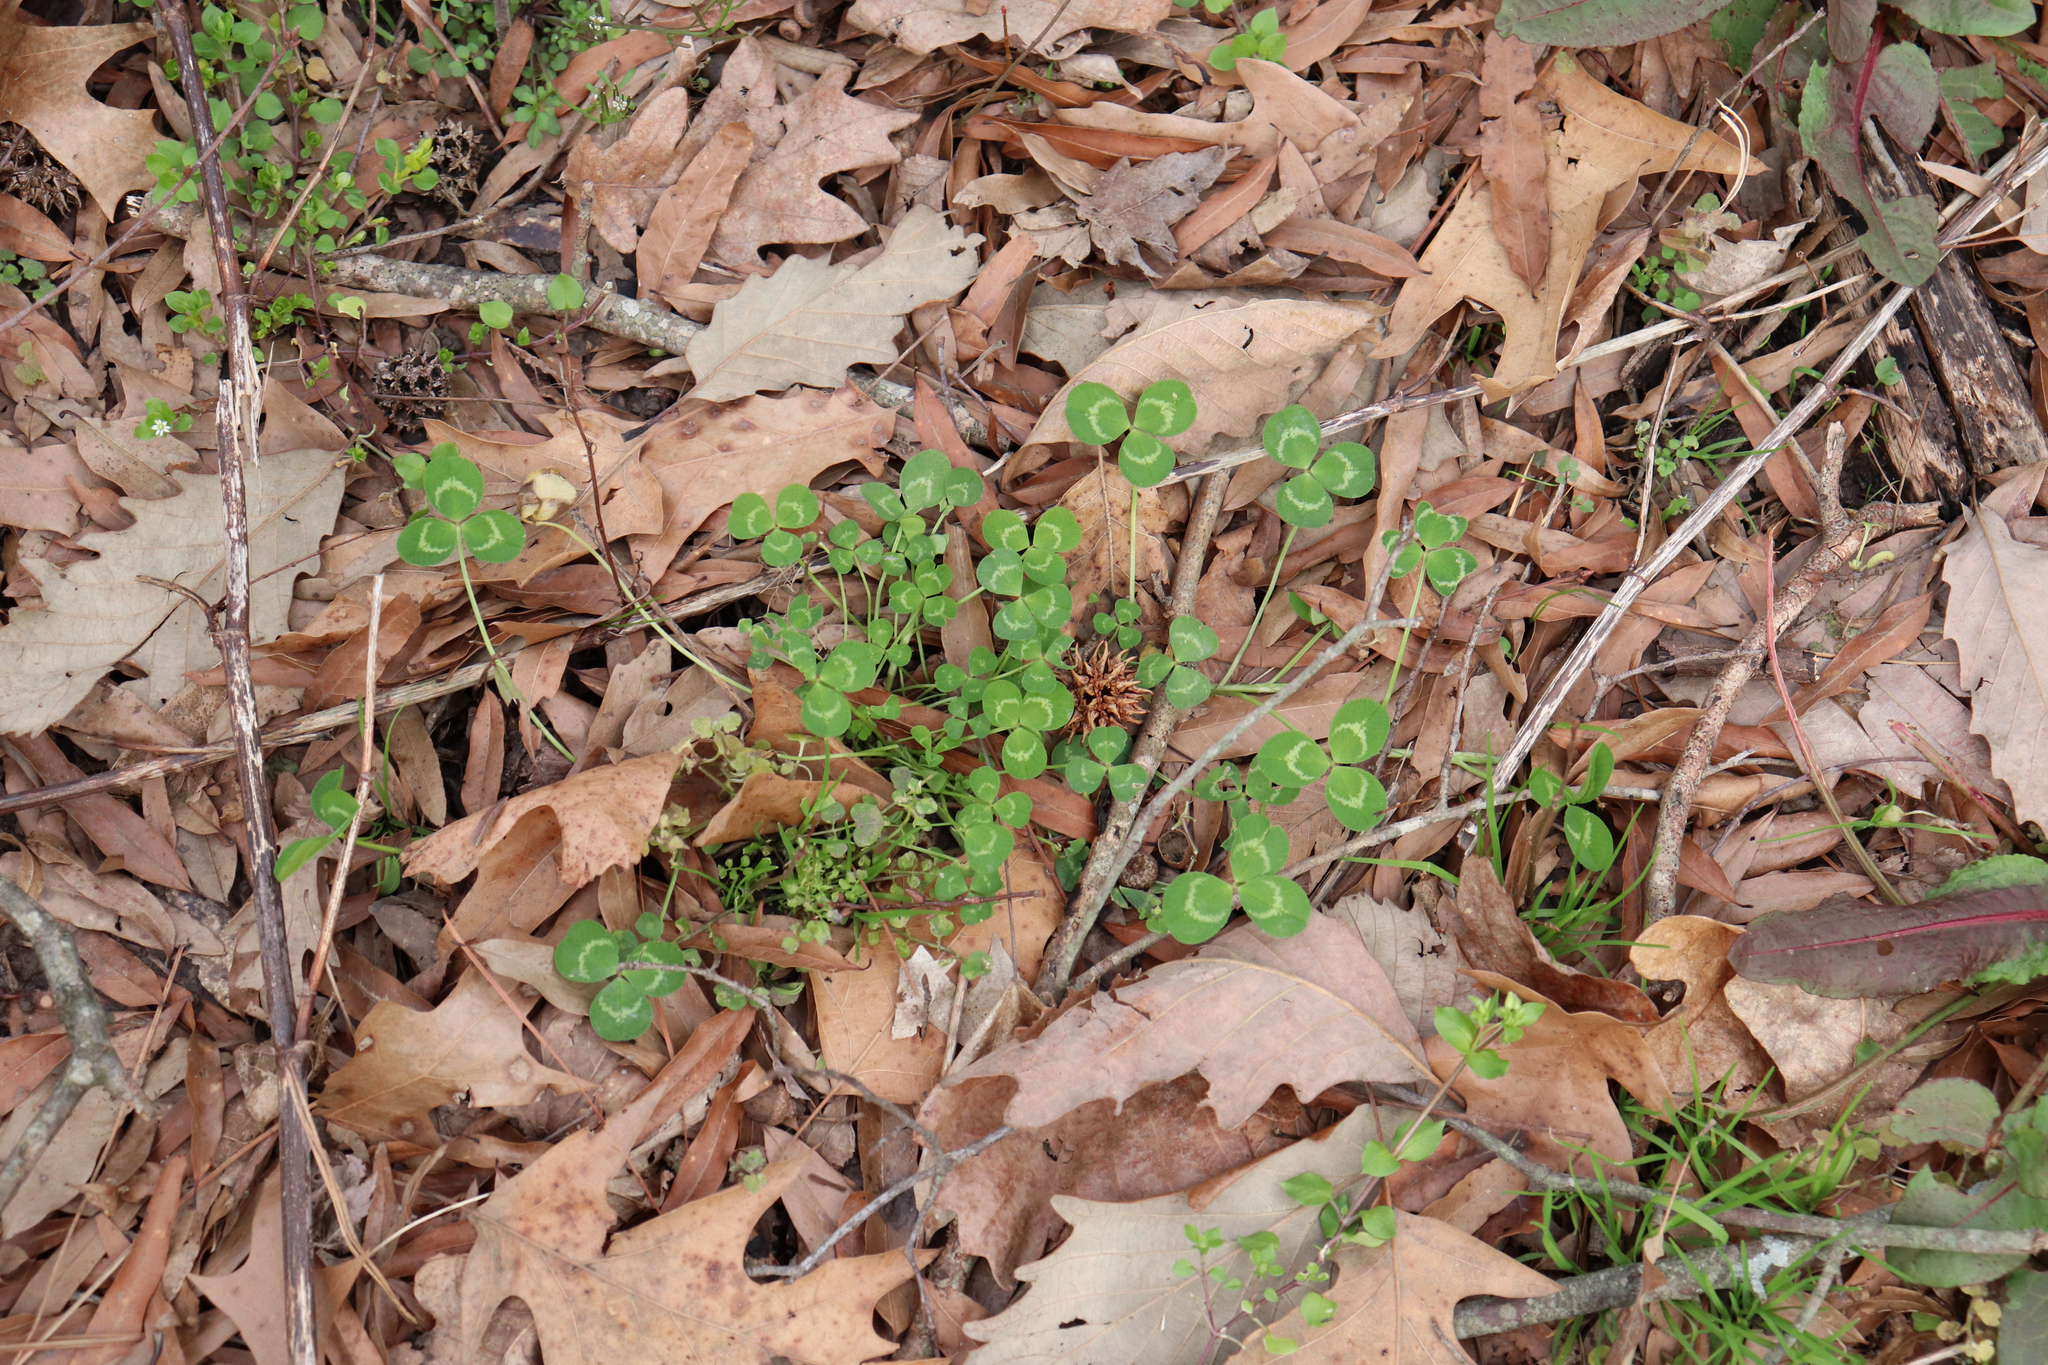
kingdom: Plantae
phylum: Tracheophyta
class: Magnoliopsida
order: Fabales
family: Fabaceae
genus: Trifolium
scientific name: Trifolium repens
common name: White clover
